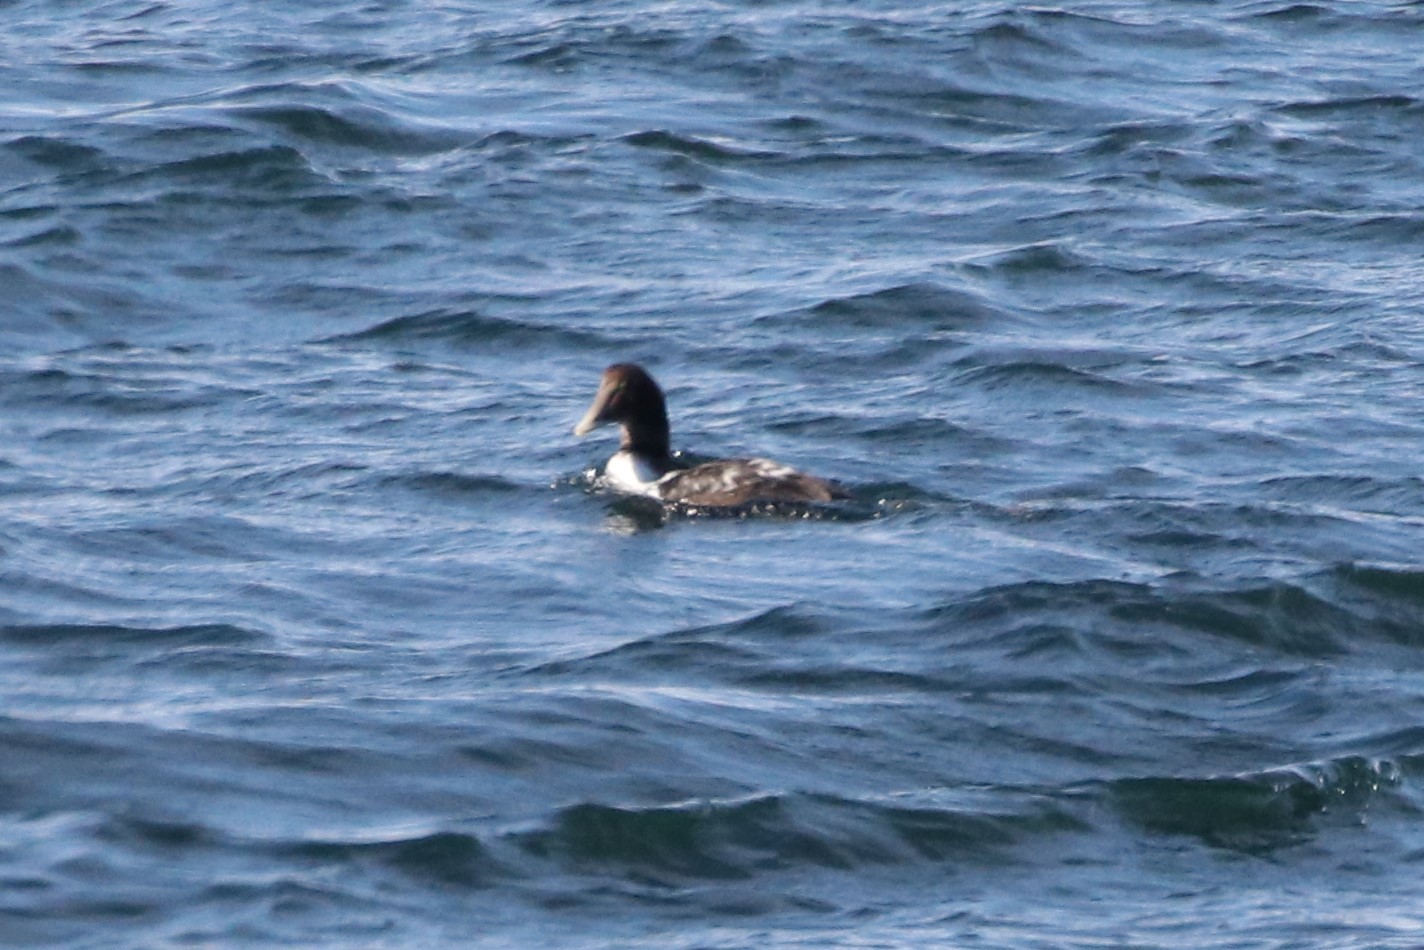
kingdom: Animalia
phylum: Chordata
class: Aves
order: Anseriformes
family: Anatidae
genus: Somateria
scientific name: Somateria mollissima
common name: Common eider
